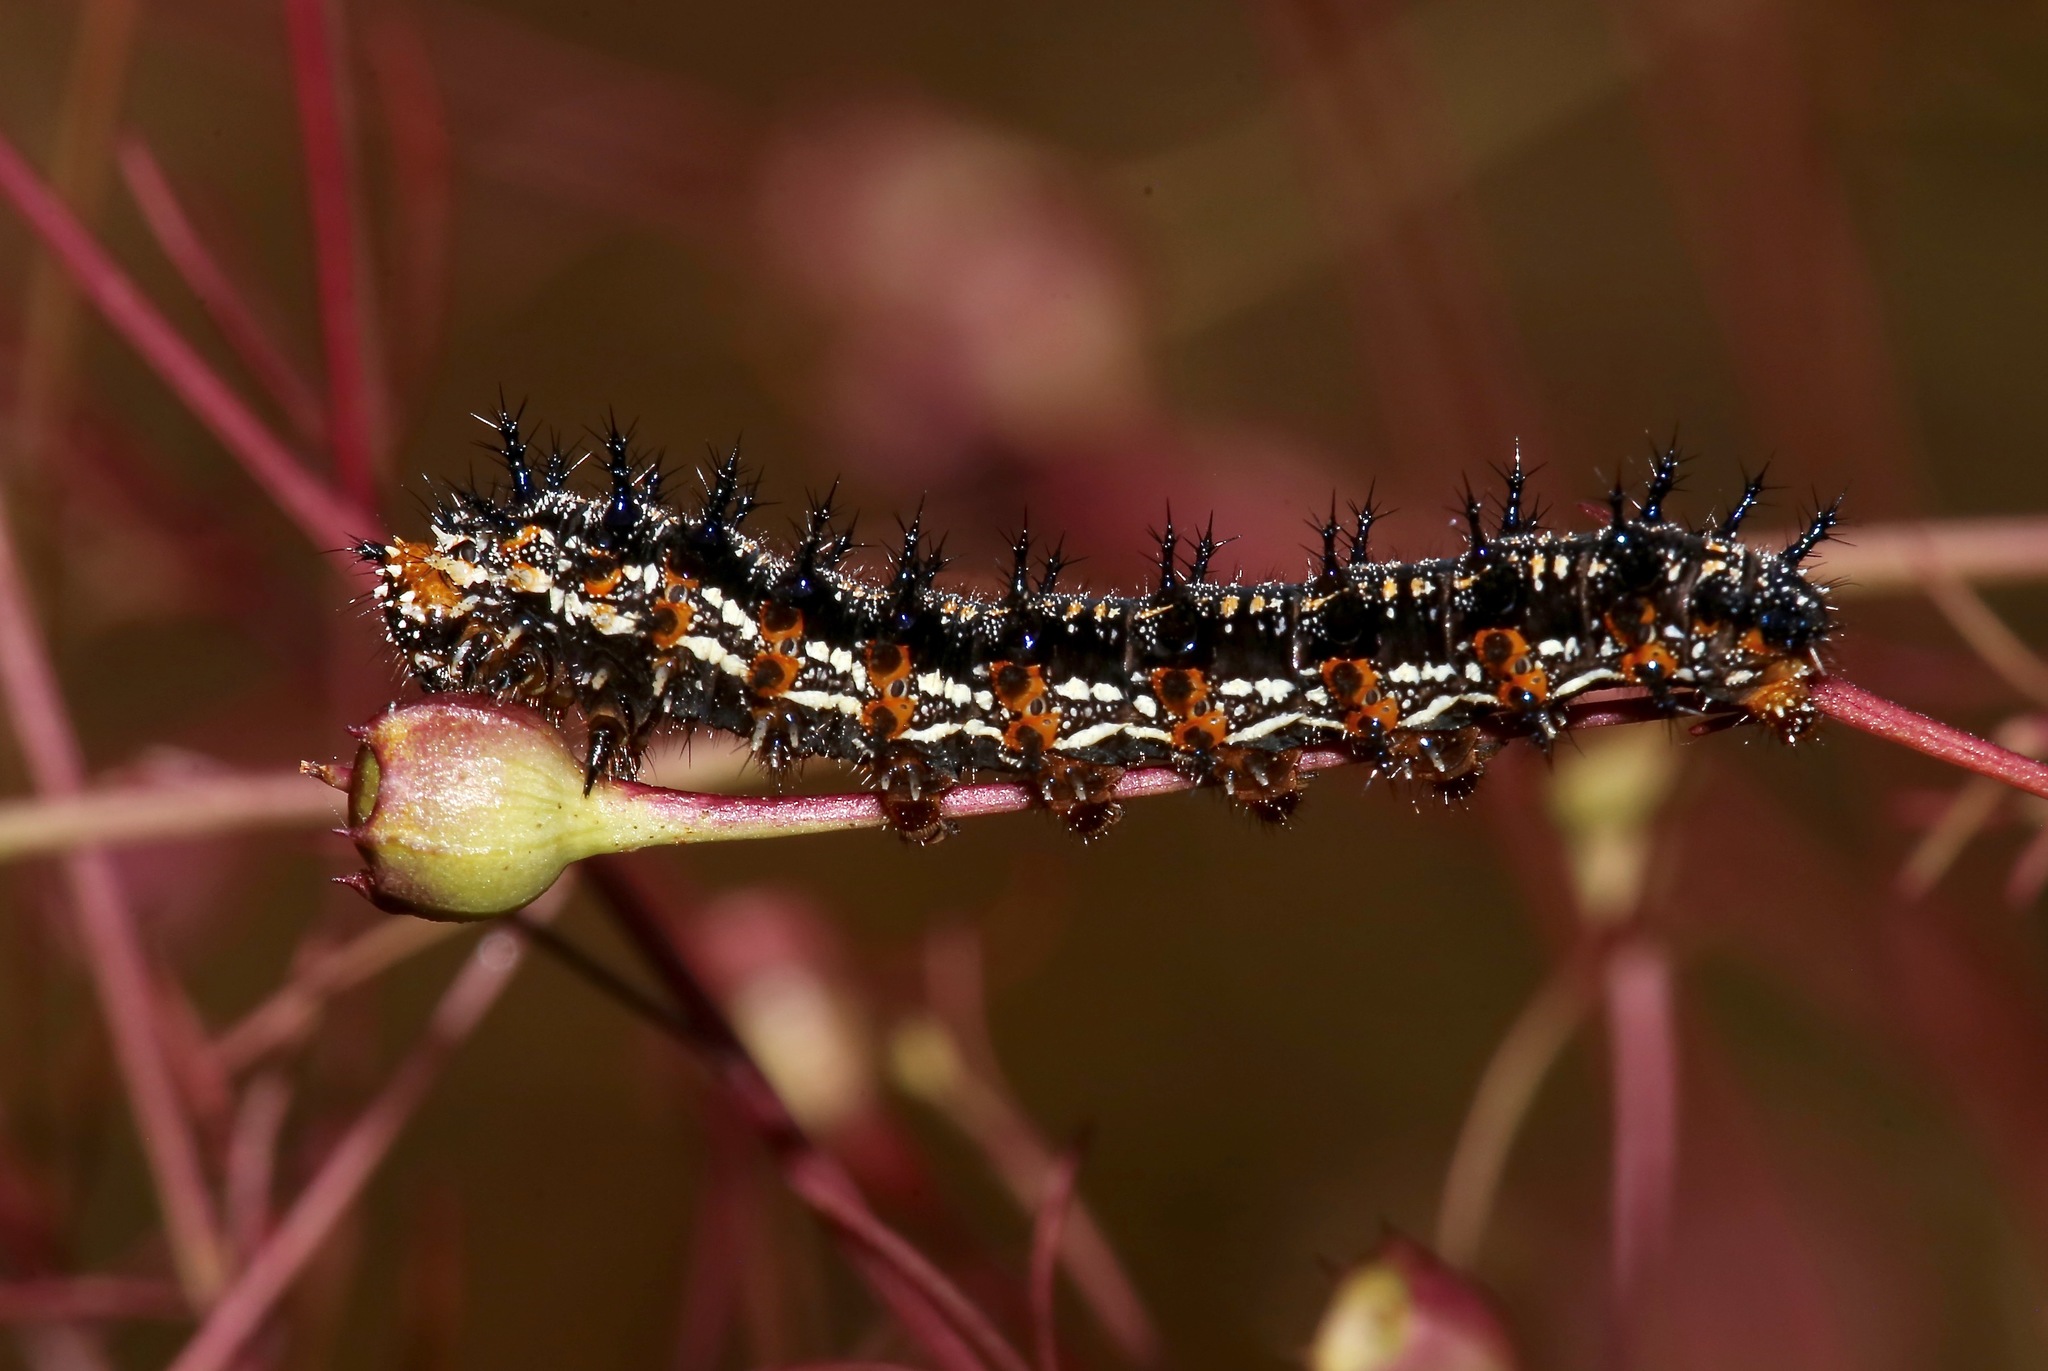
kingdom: Animalia
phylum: Arthropoda
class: Insecta
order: Lepidoptera
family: Nymphalidae
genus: Junonia
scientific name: Junonia coenia
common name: Common buckeye
